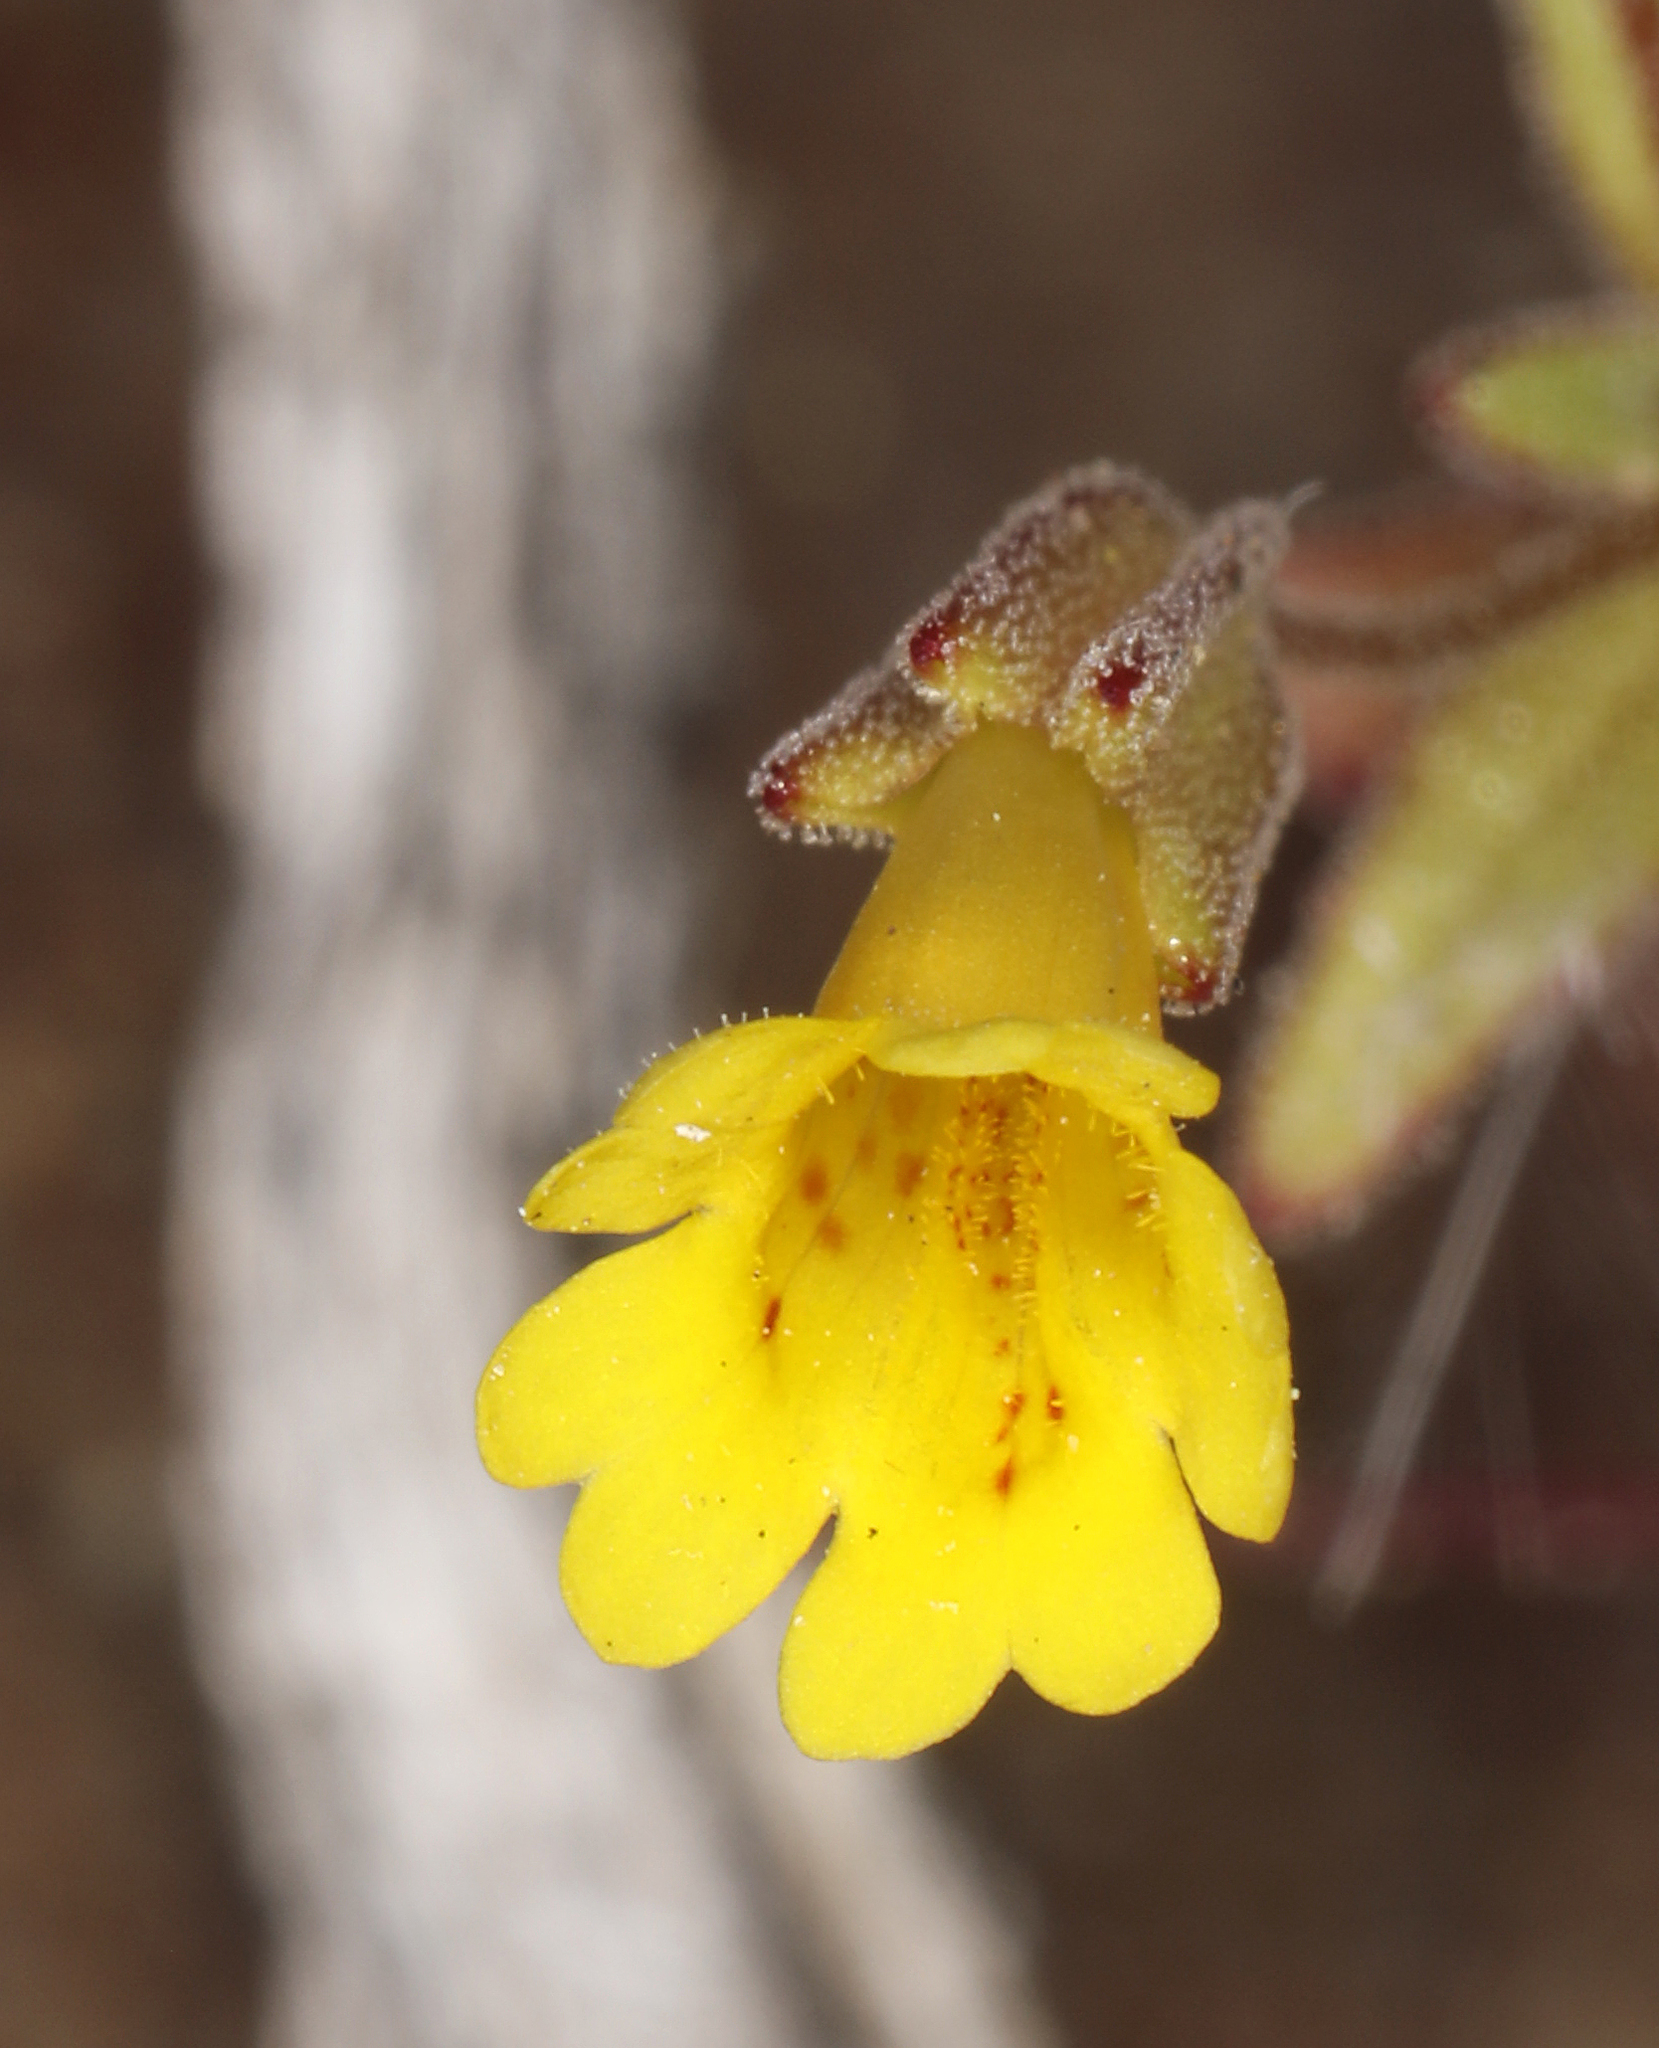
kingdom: Plantae
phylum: Tracheophyta
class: Magnoliopsida
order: Lamiales
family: Phrymaceae
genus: Erythranthe
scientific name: Erythranthe calcicola
